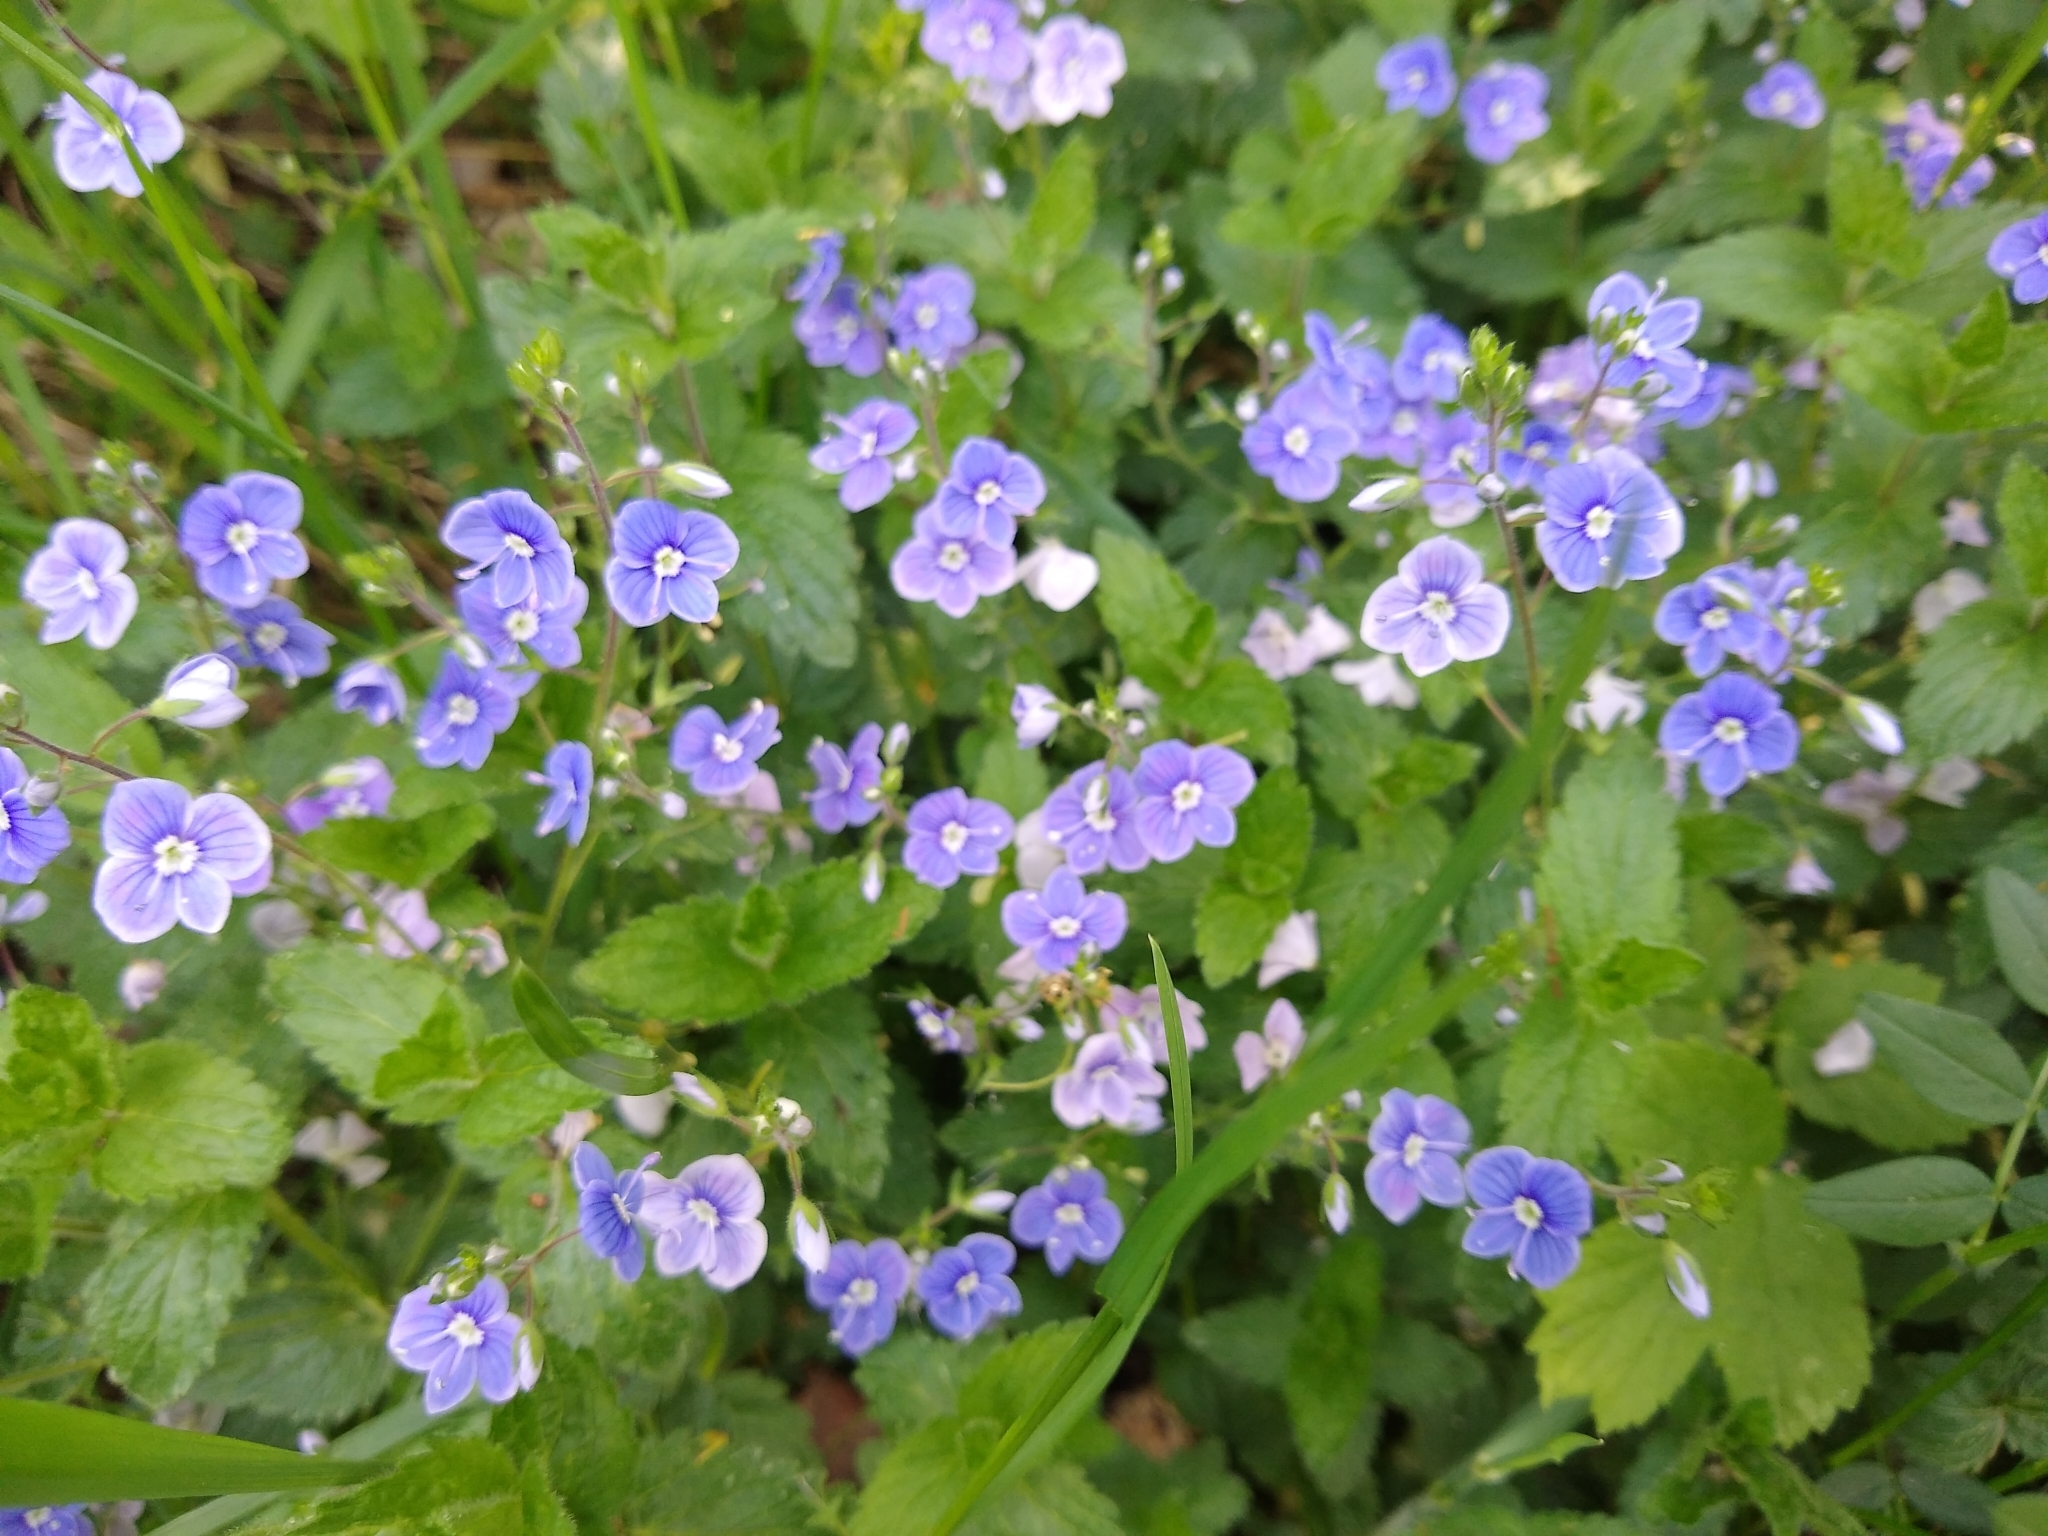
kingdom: Plantae
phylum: Tracheophyta
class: Magnoliopsida
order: Lamiales
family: Plantaginaceae
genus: Veronica
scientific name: Veronica chamaedrys
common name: Germander speedwell
